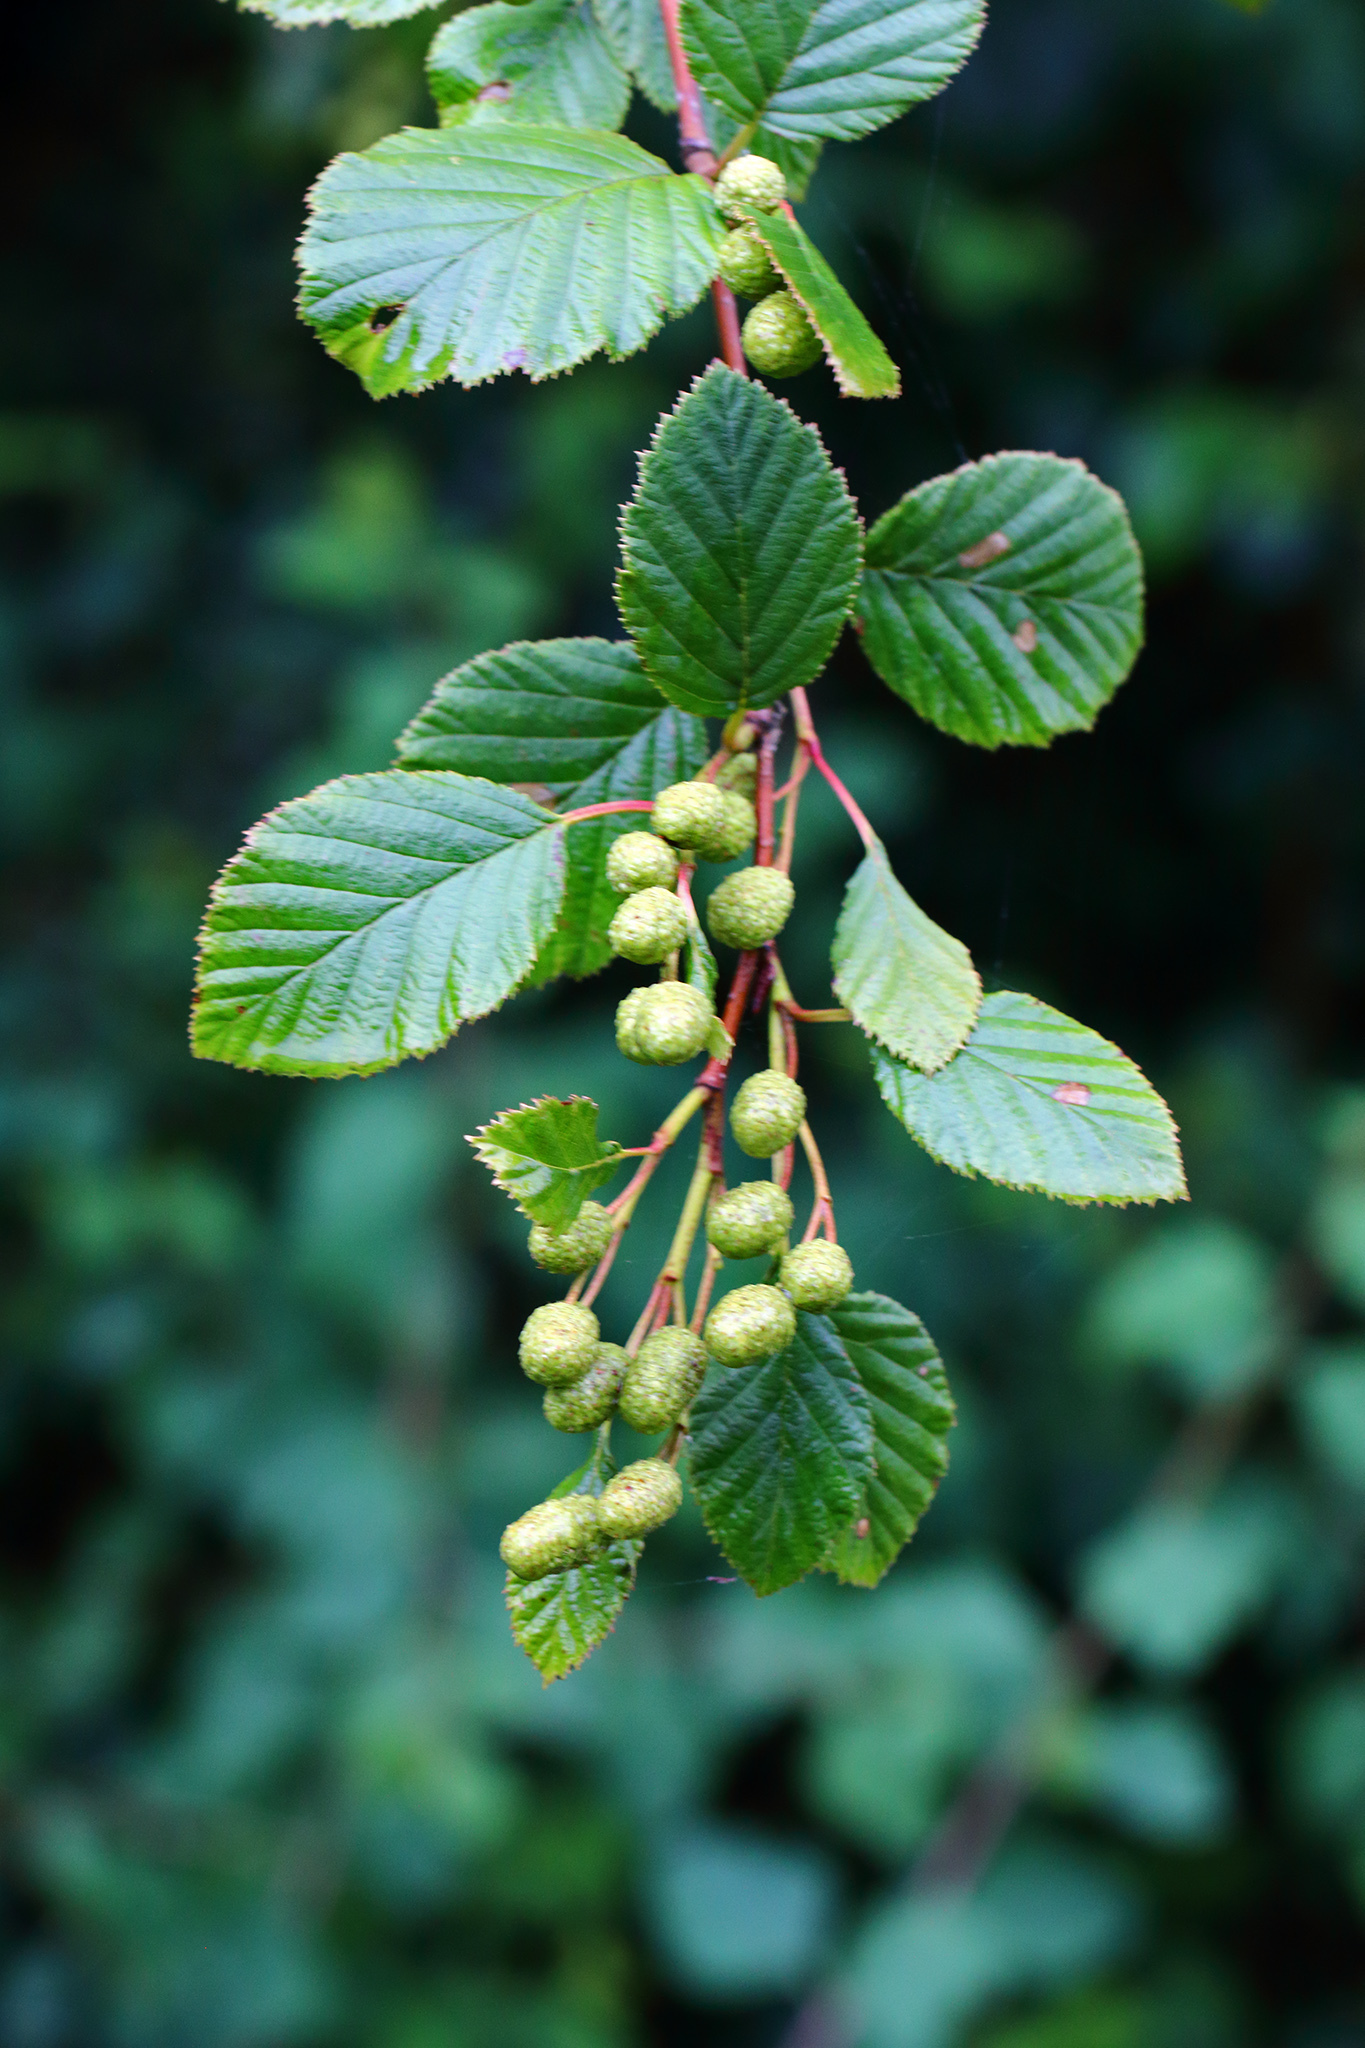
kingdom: Plantae
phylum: Tracheophyta
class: Magnoliopsida
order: Fagales
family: Betulaceae
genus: Alnus
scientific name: Alnus alnobetula
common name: Green alder
